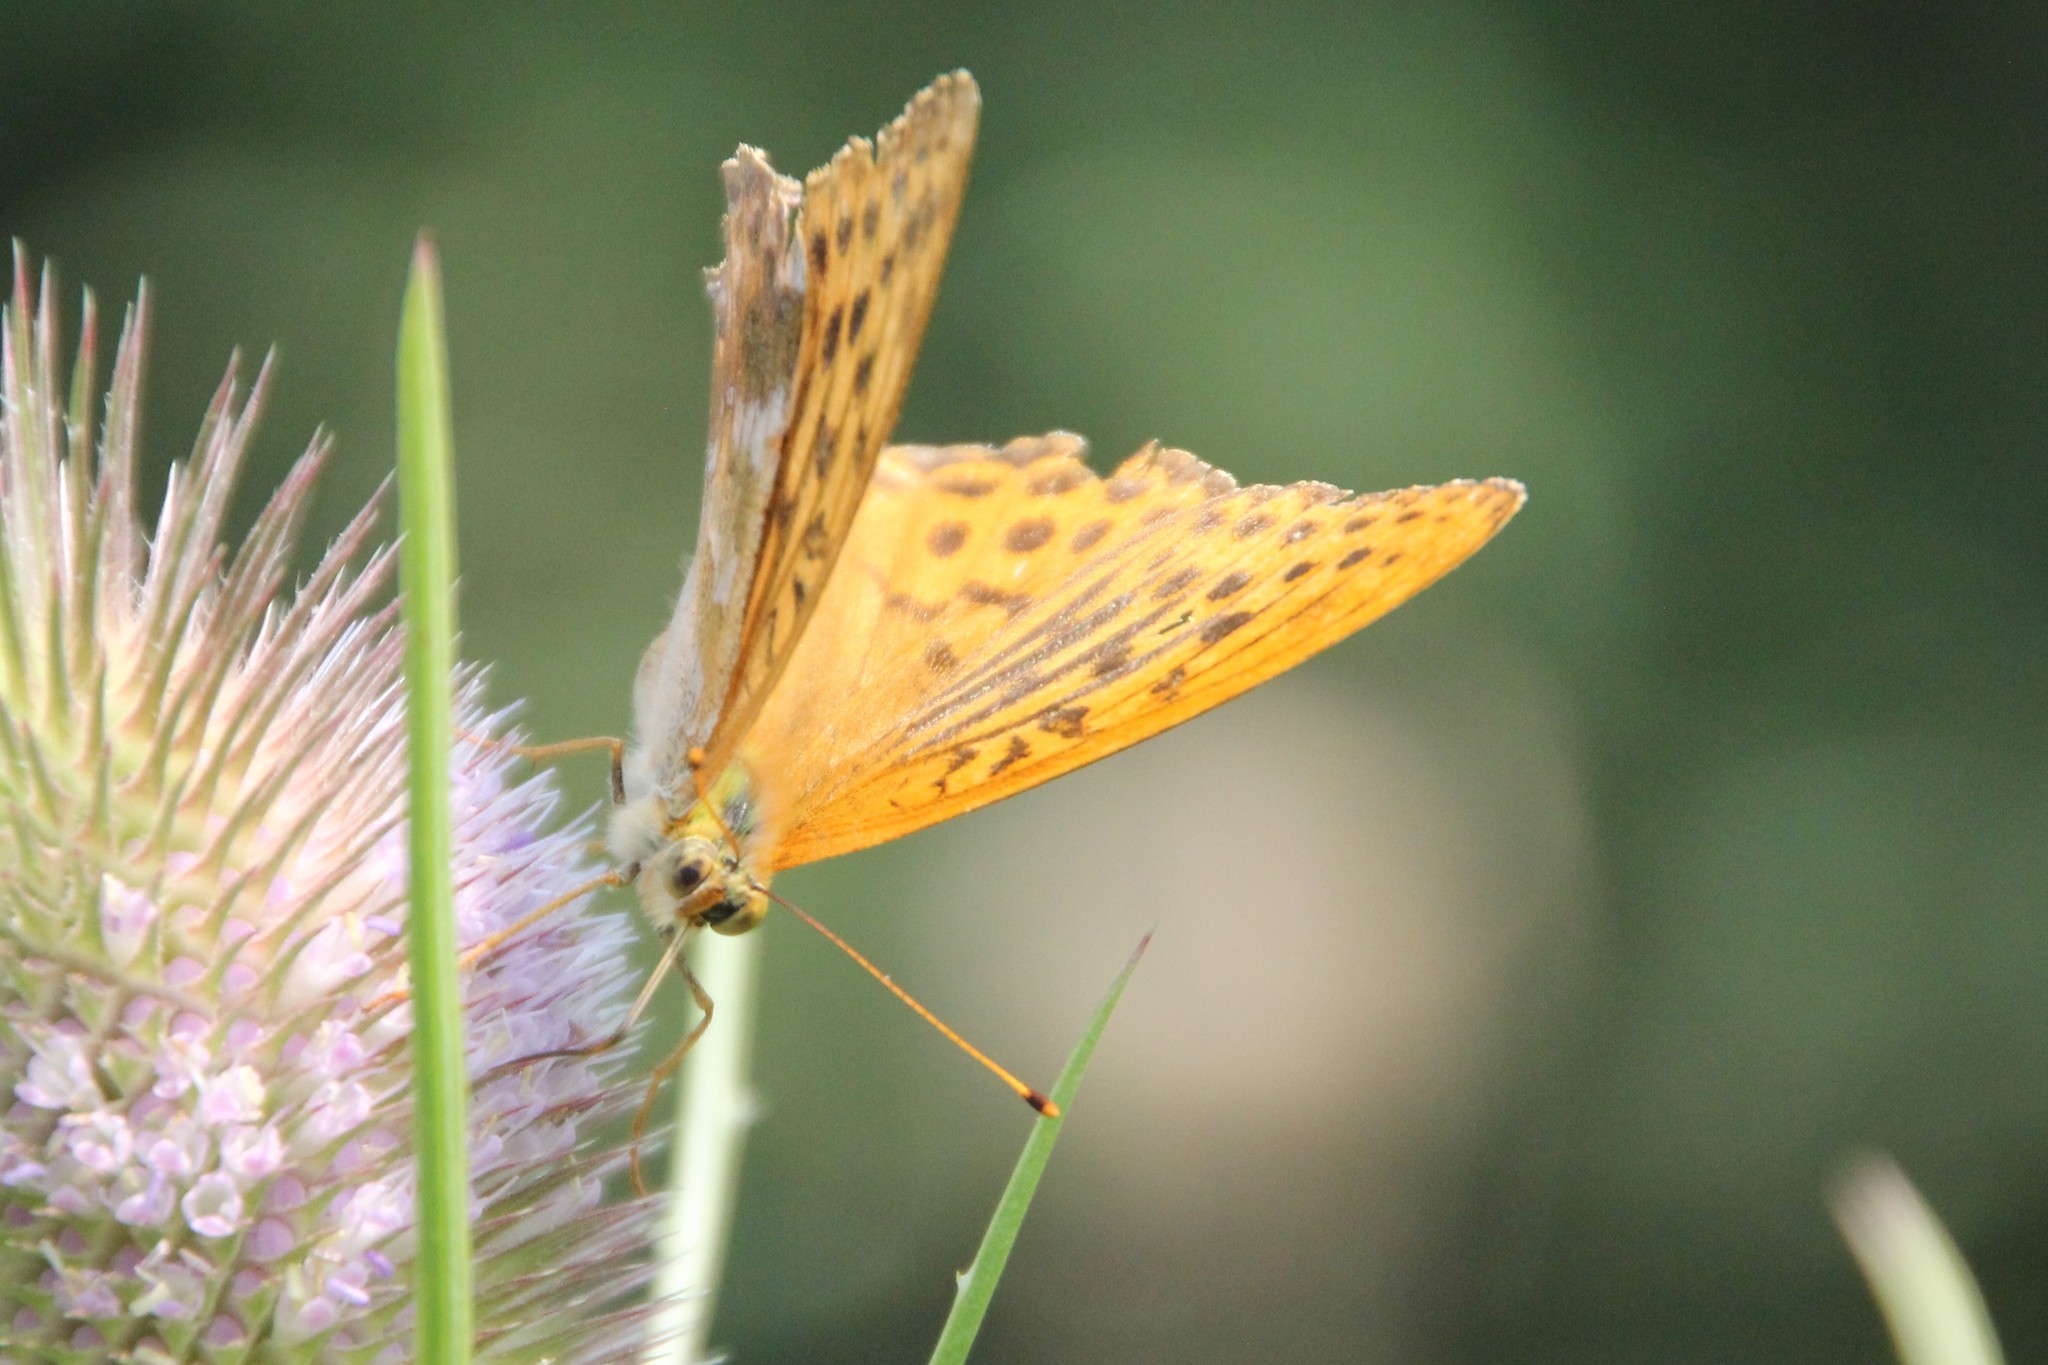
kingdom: Animalia
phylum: Arthropoda
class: Insecta
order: Lepidoptera
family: Nymphalidae
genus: Argynnis
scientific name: Argynnis paphia
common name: Silver-washed fritillary
